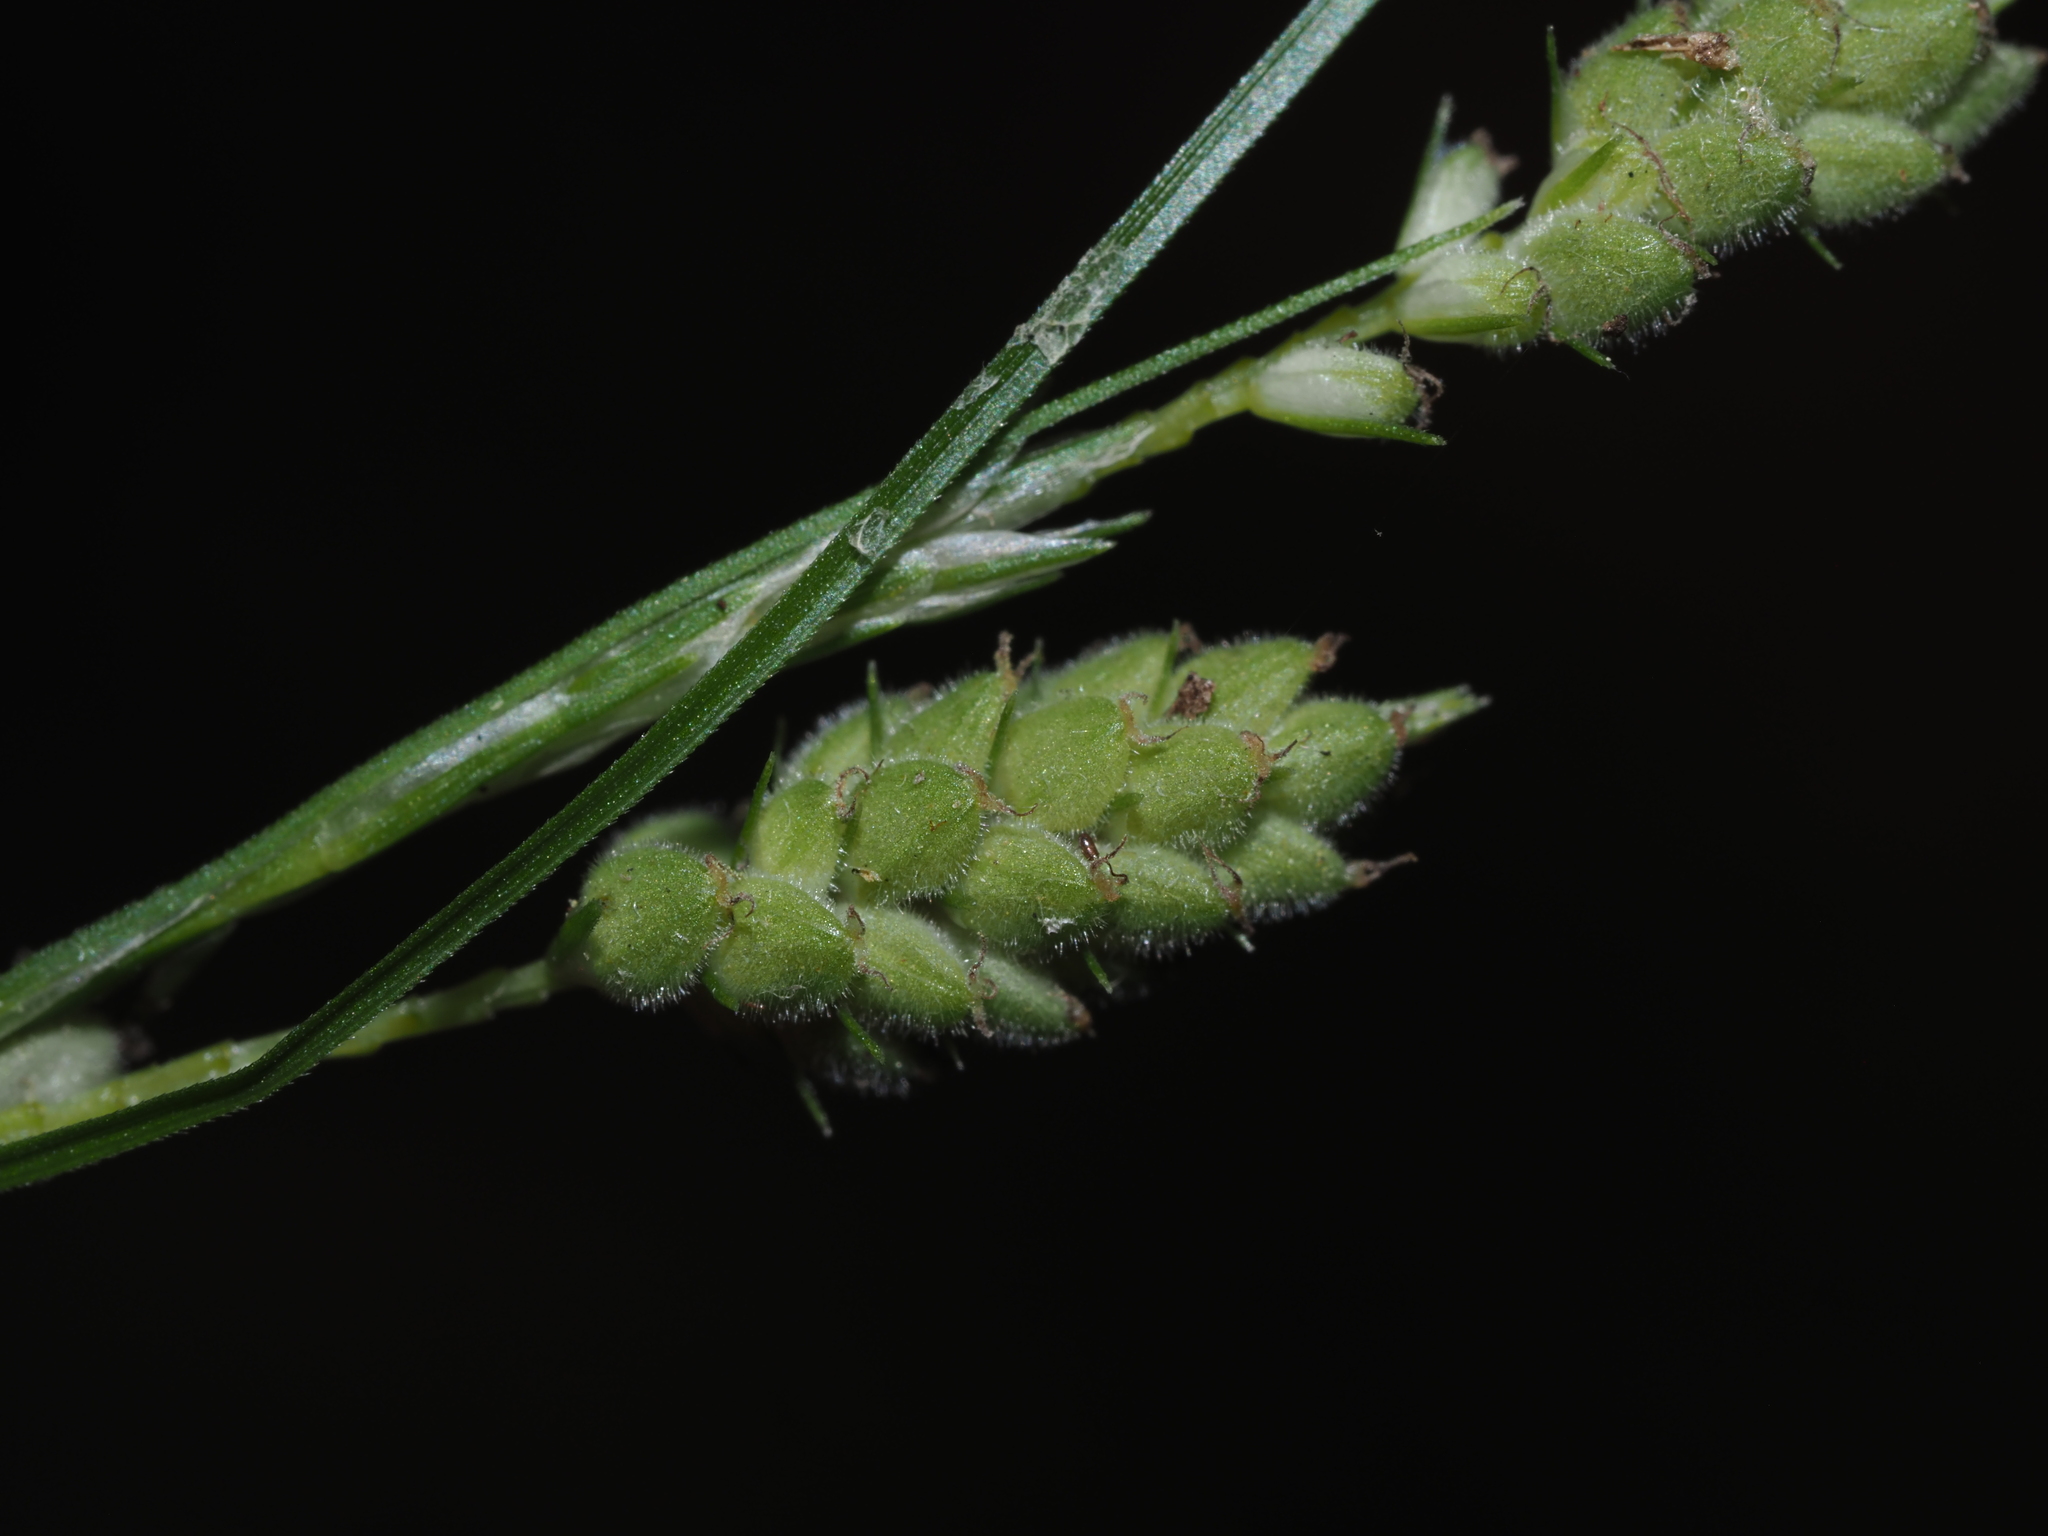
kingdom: Plantae
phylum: Tracheophyta
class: Liliopsida
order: Poales
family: Cyperaceae
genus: Carex
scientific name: Carex swanii
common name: Downy green sedge
